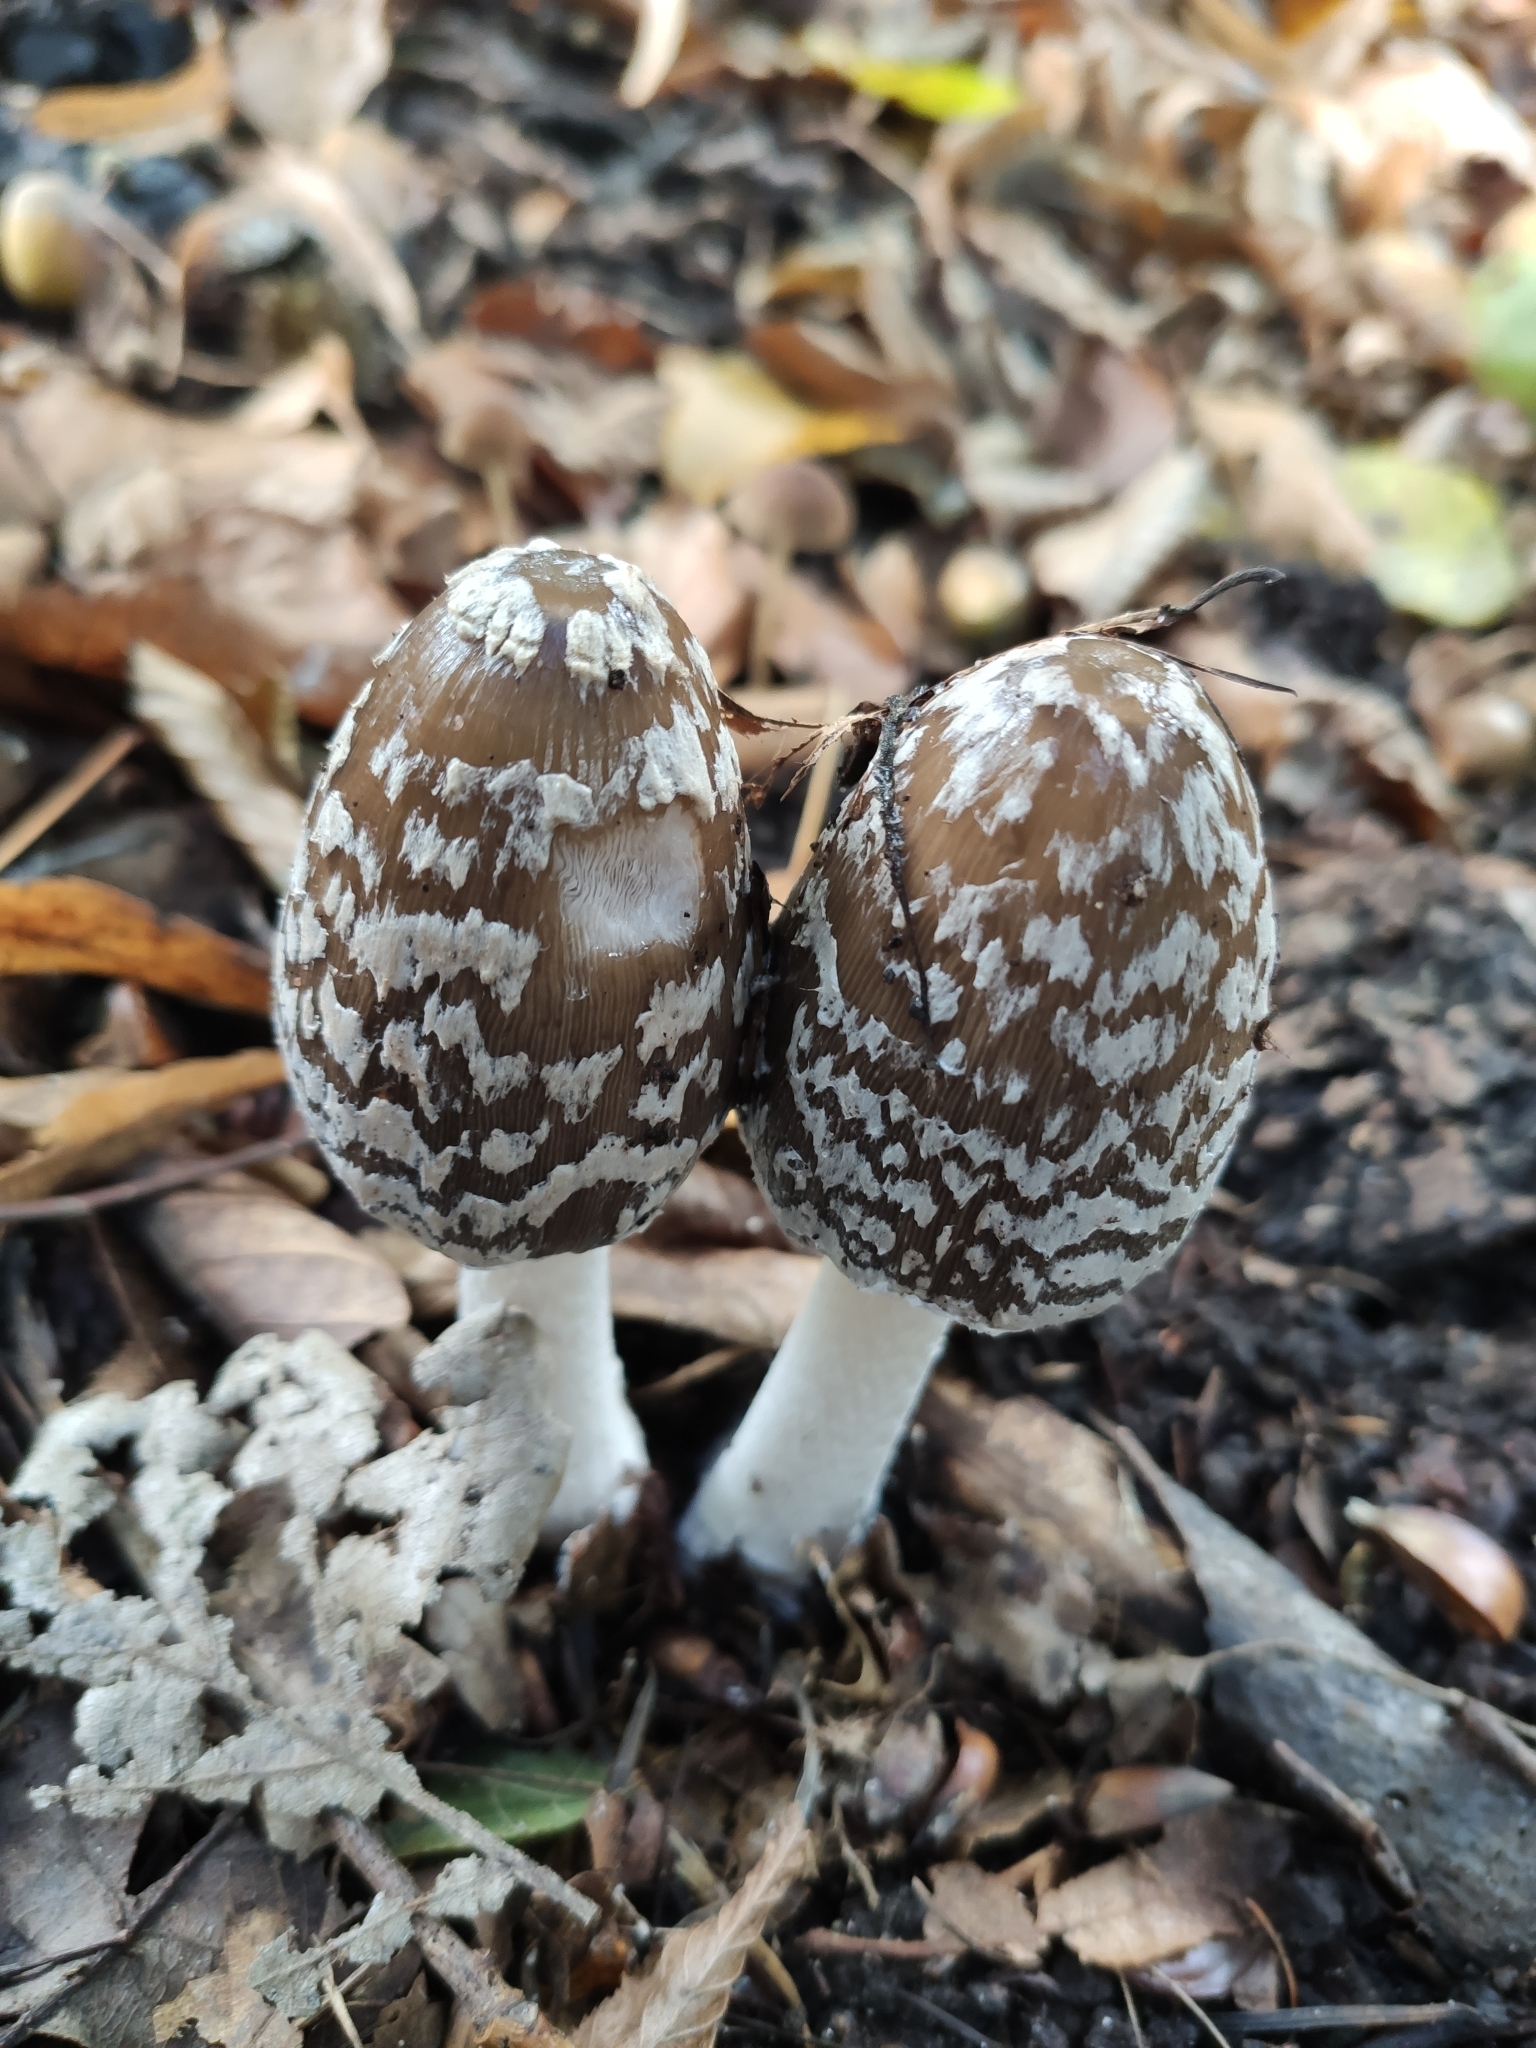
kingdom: Fungi
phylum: Basidiomycota
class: Agaricomycetes
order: Agaricales
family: Psathyrellaceae
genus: Coprinopsis
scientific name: Coprinopsis picacea
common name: Magpie inkcap
